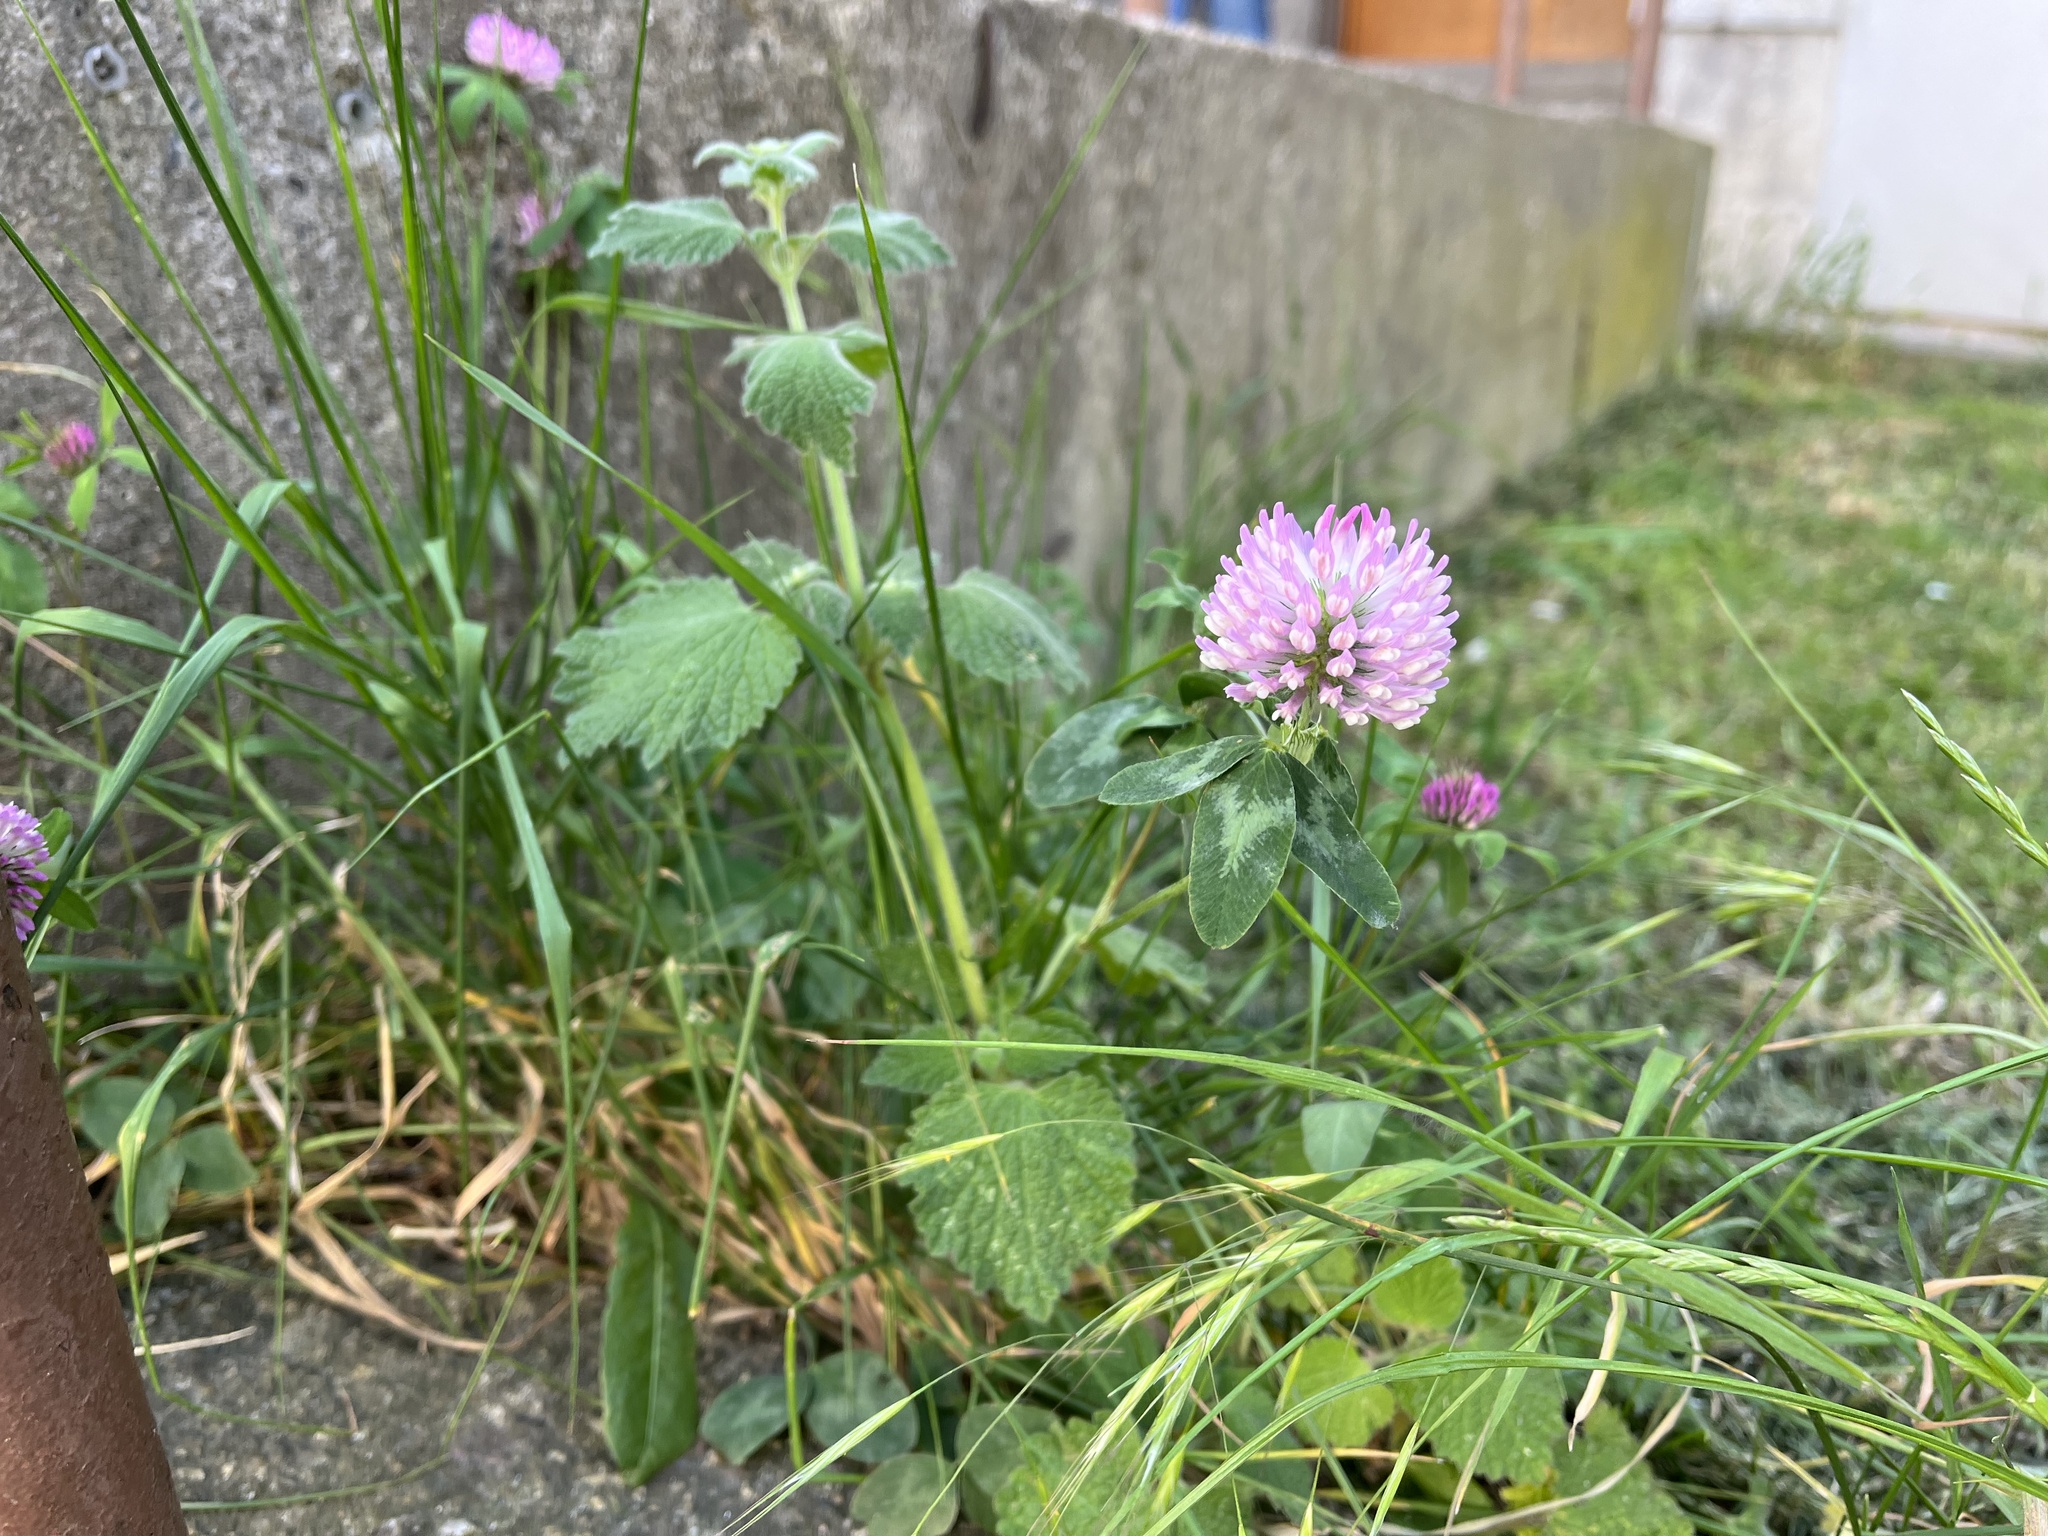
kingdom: Plantae
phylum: Tracheophyta
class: Magnoliopsida
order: Fabales
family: Fabaceae
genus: Trifolium
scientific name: Trifolium pratense
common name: Red clover
